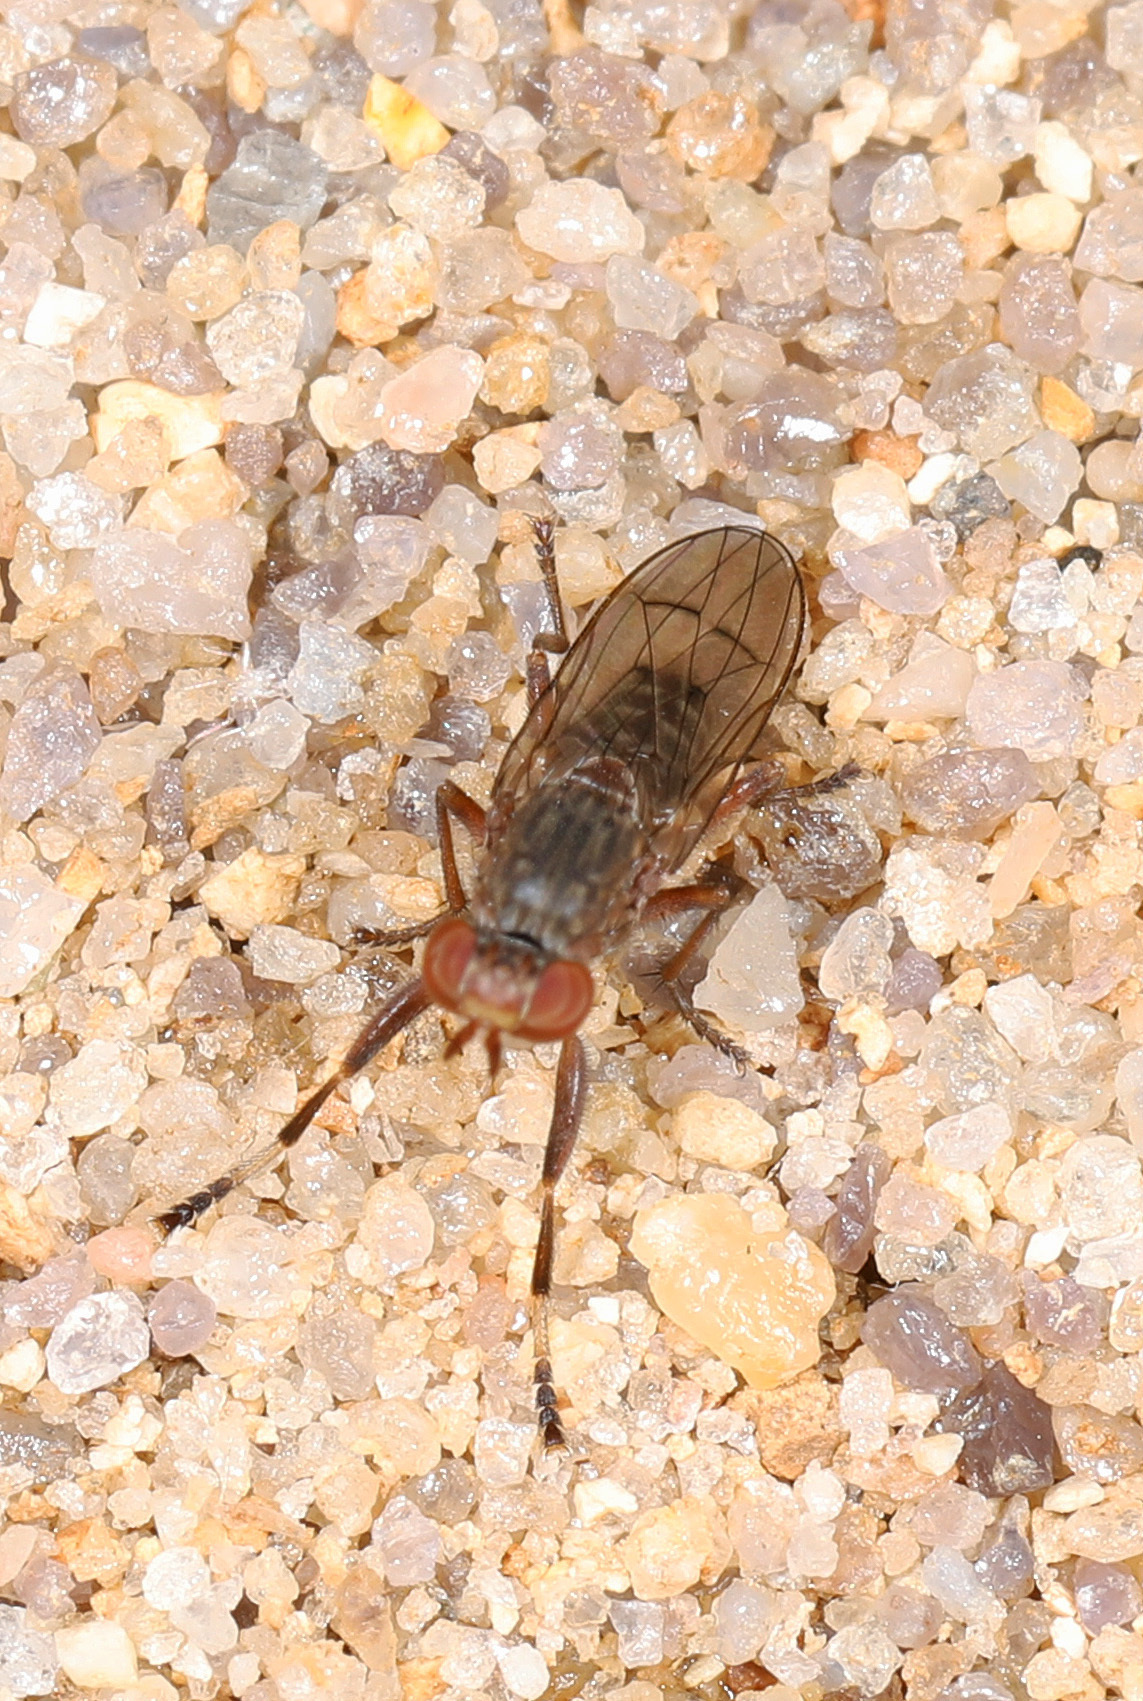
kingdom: Animalia
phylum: Arthropoda
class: Insecta
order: Diptera
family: Sciomyzidae
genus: Atrichomelina
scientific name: Atrichomelina pubera
